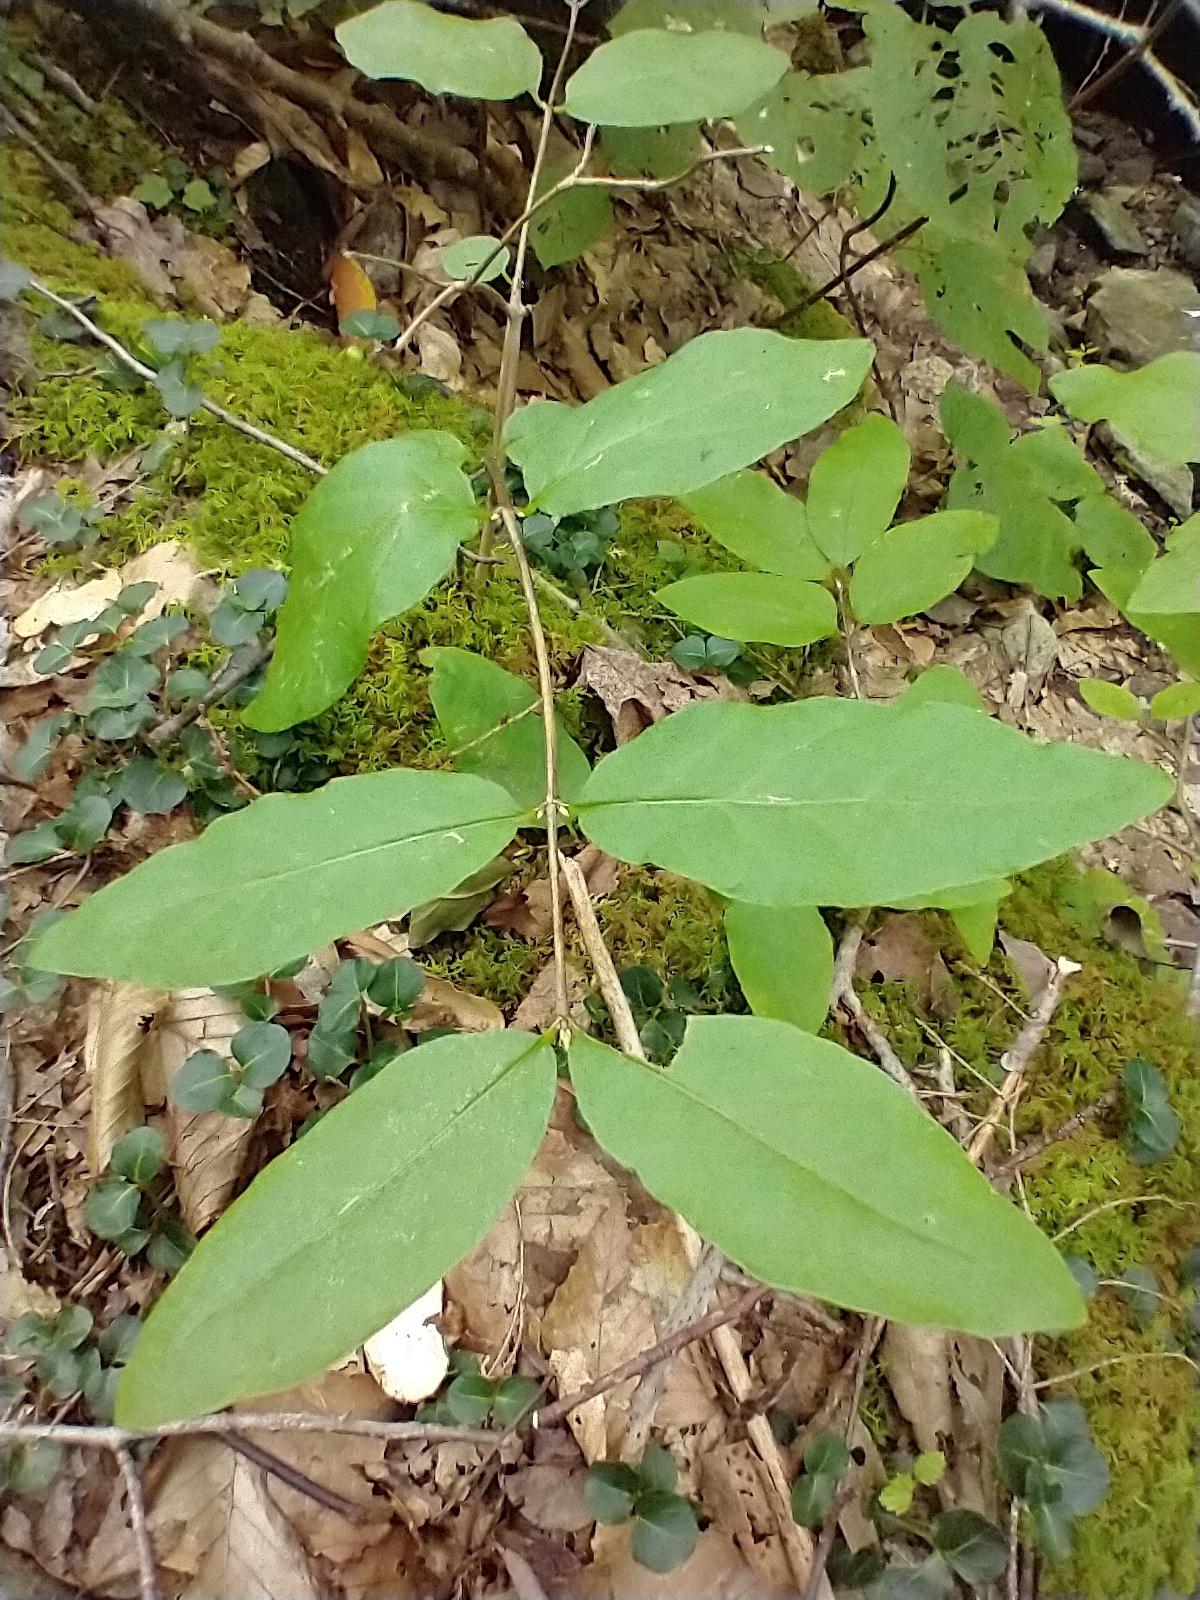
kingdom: Plantae
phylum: Tracheophyta
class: Magnoliopsida
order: Dipsacales
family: Caprifoliaceae
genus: Lonicera
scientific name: Lonicera canadensis
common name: American fly-honeysuckle
